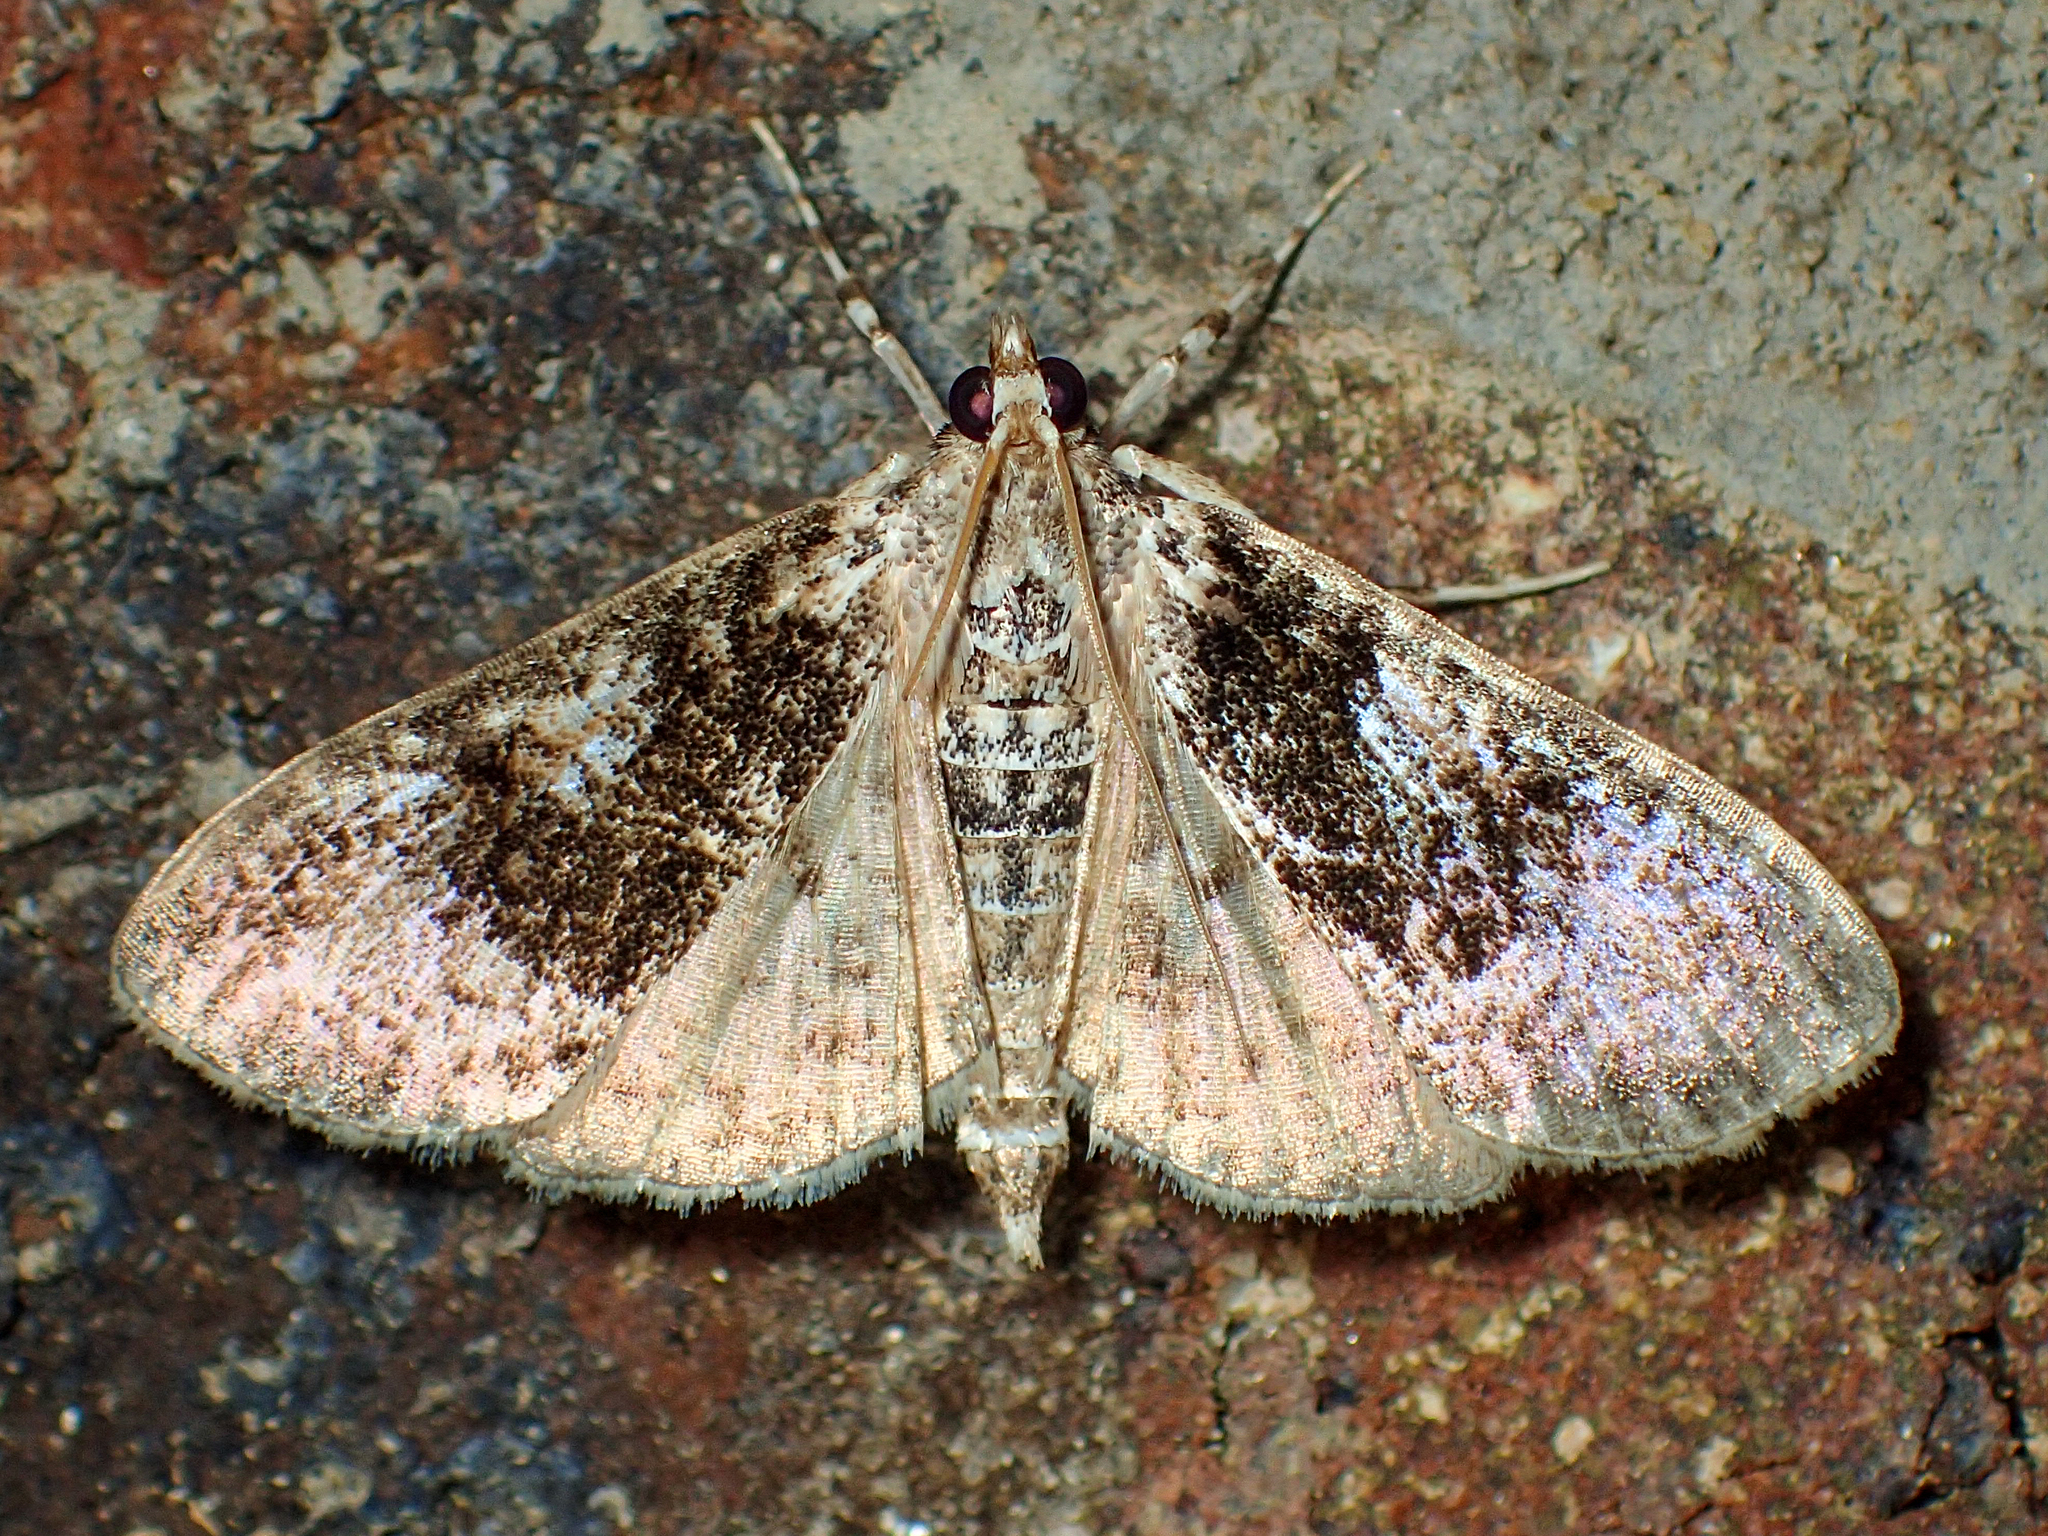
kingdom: Animalia
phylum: Arthropoda
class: Insecta
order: Lepidoptera
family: Crambidae
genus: Palpita
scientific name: Palpita magniferalis
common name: Splendid palpita moth
